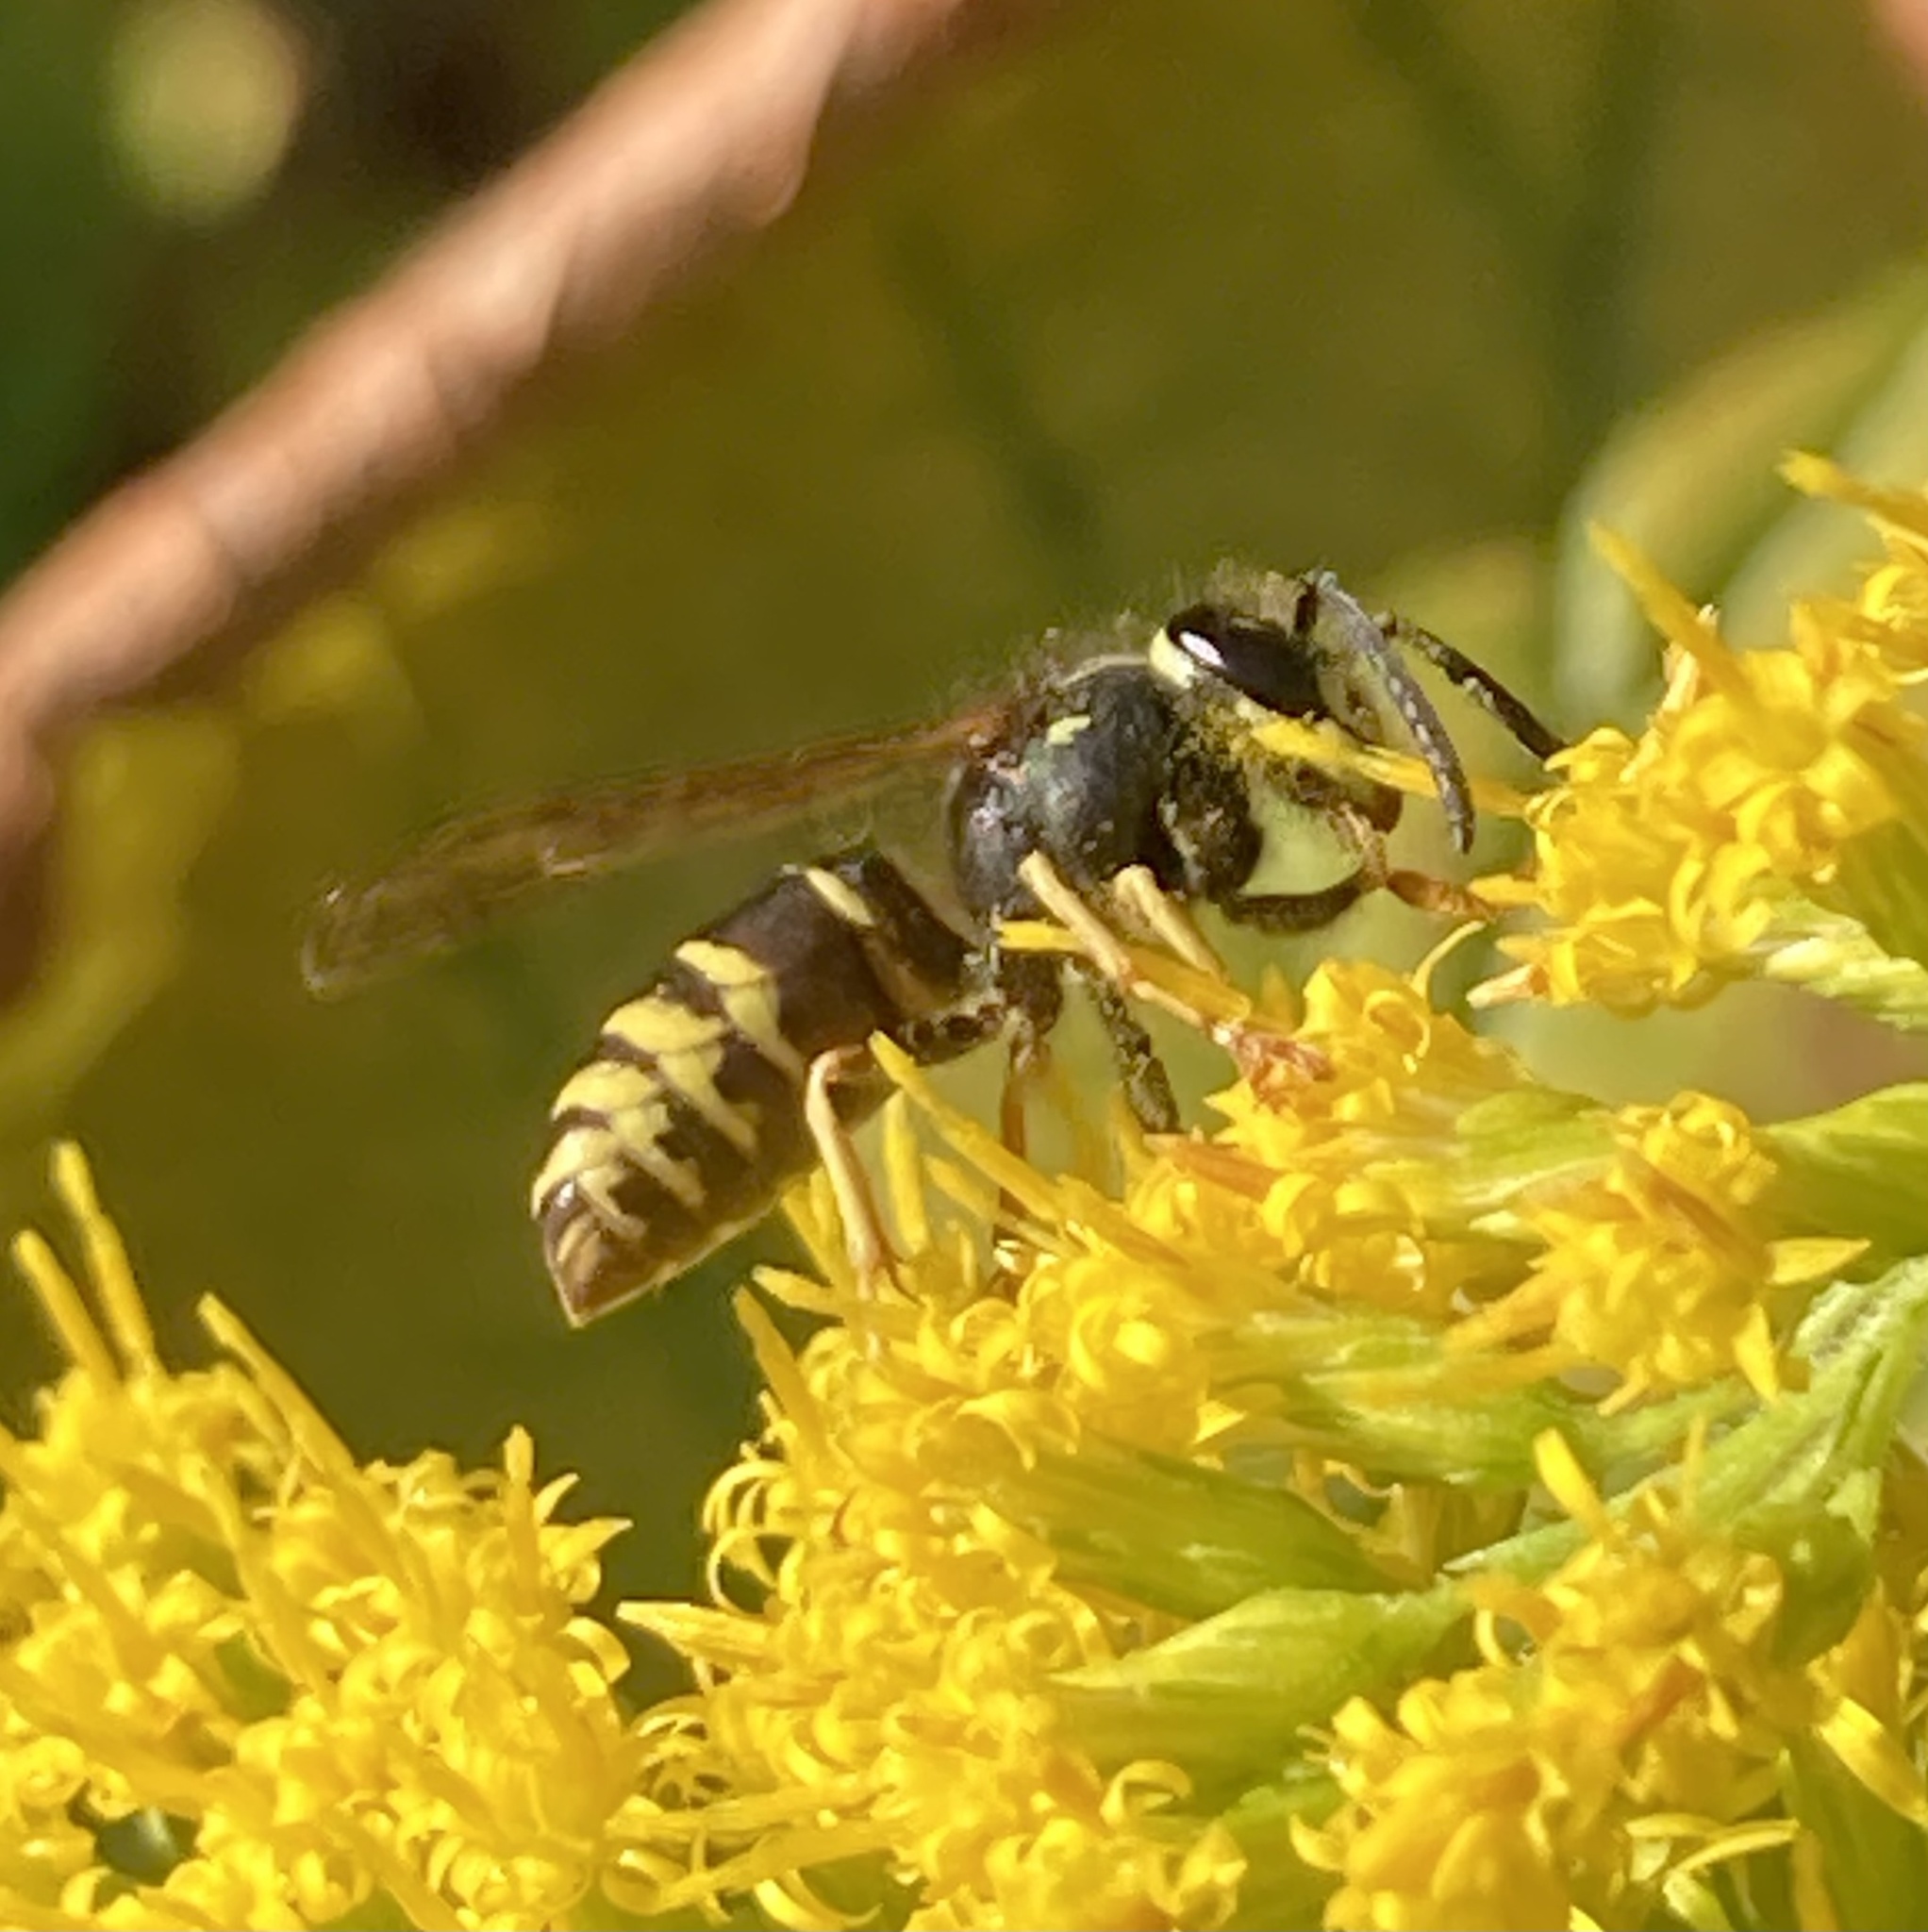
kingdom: Animalia
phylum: Arthropoda
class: Insecta
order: Hymenoptera
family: Vespidae
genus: Vespula
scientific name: Vespula vidua
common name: Widow yellowjacket
